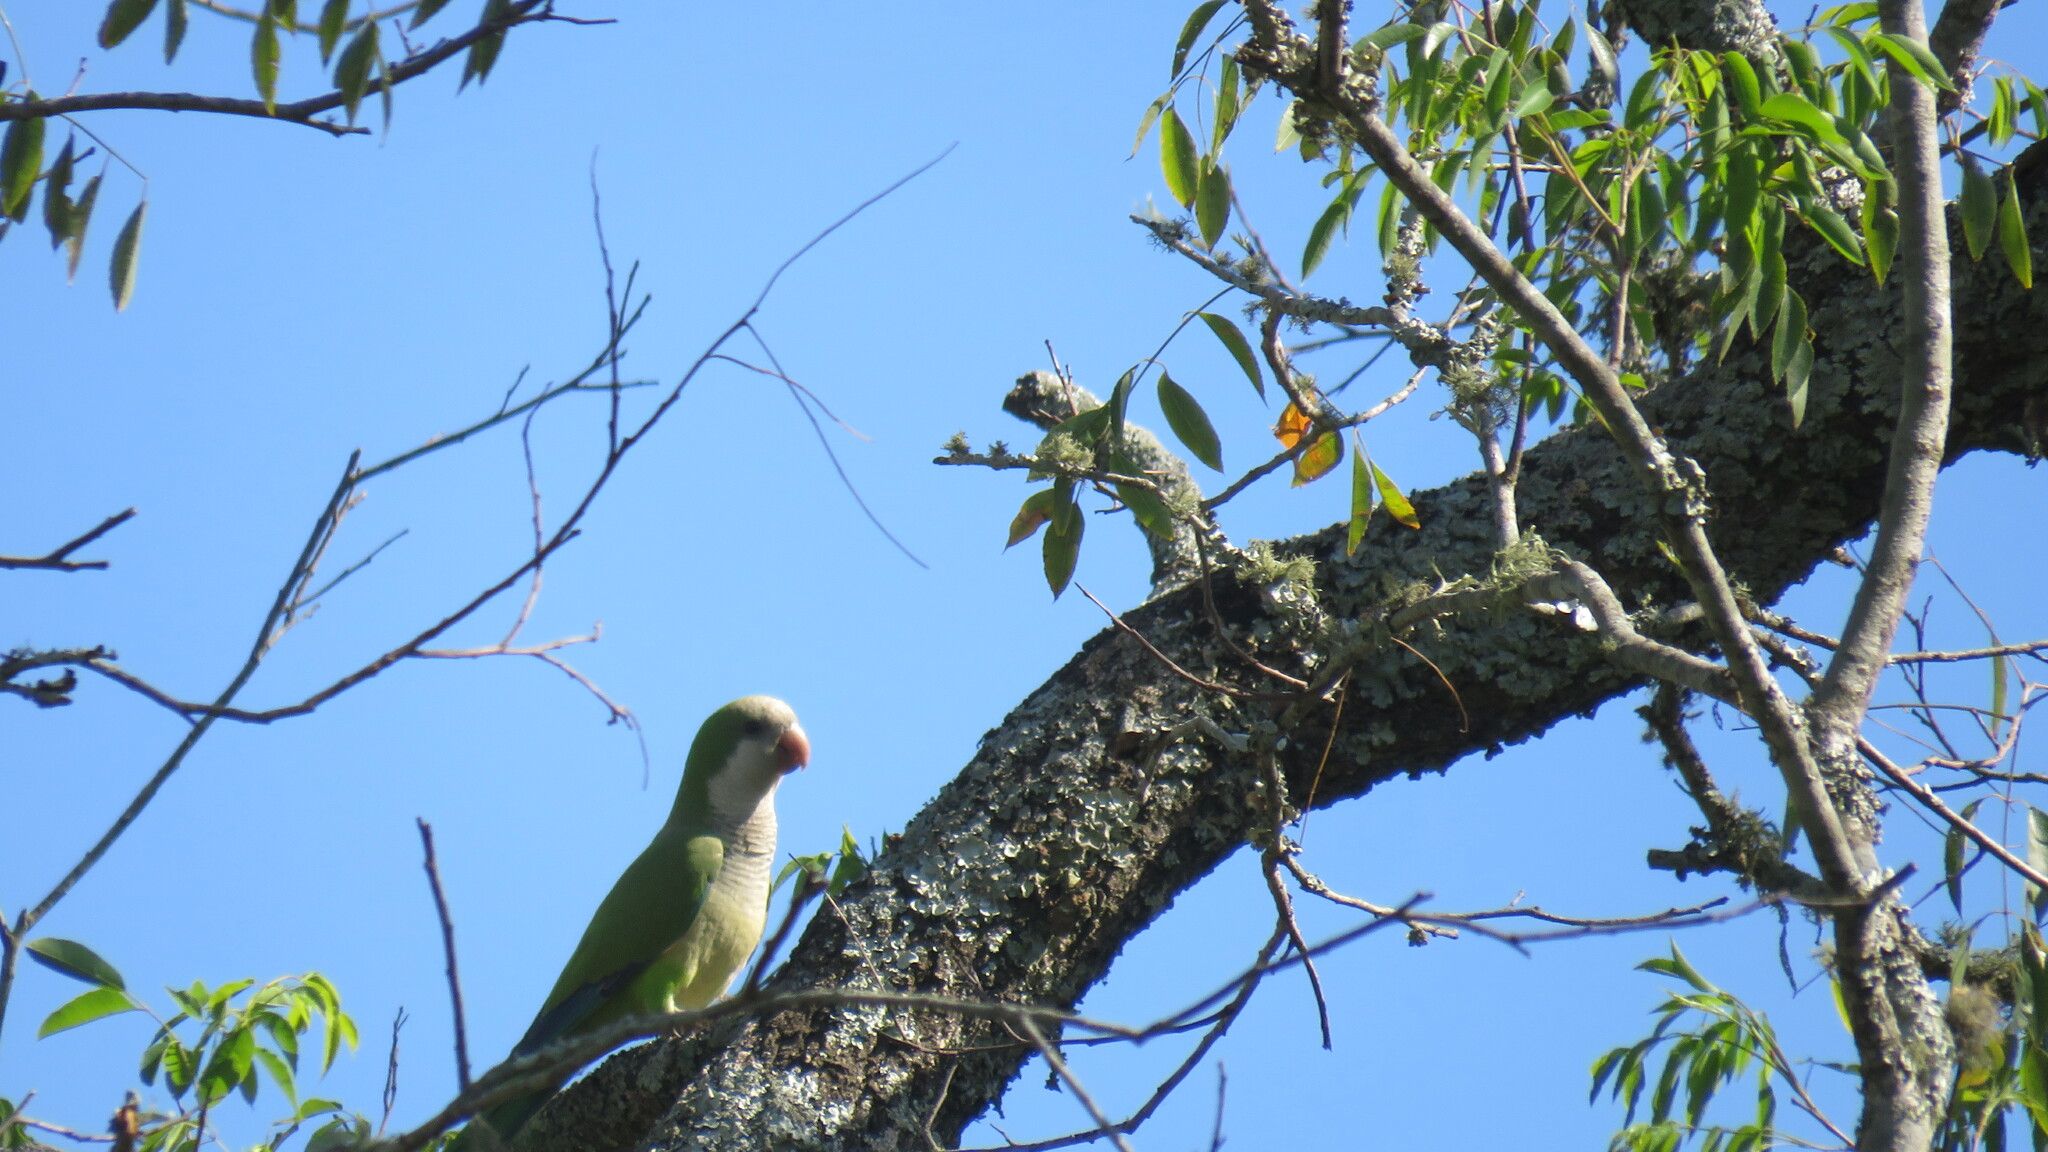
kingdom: Animalia
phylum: Chordata
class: Aves
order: Psittaciformes
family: Psittacidae
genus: Myiopsitta
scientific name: Myiopsitta monachus
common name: Monk parakeet
